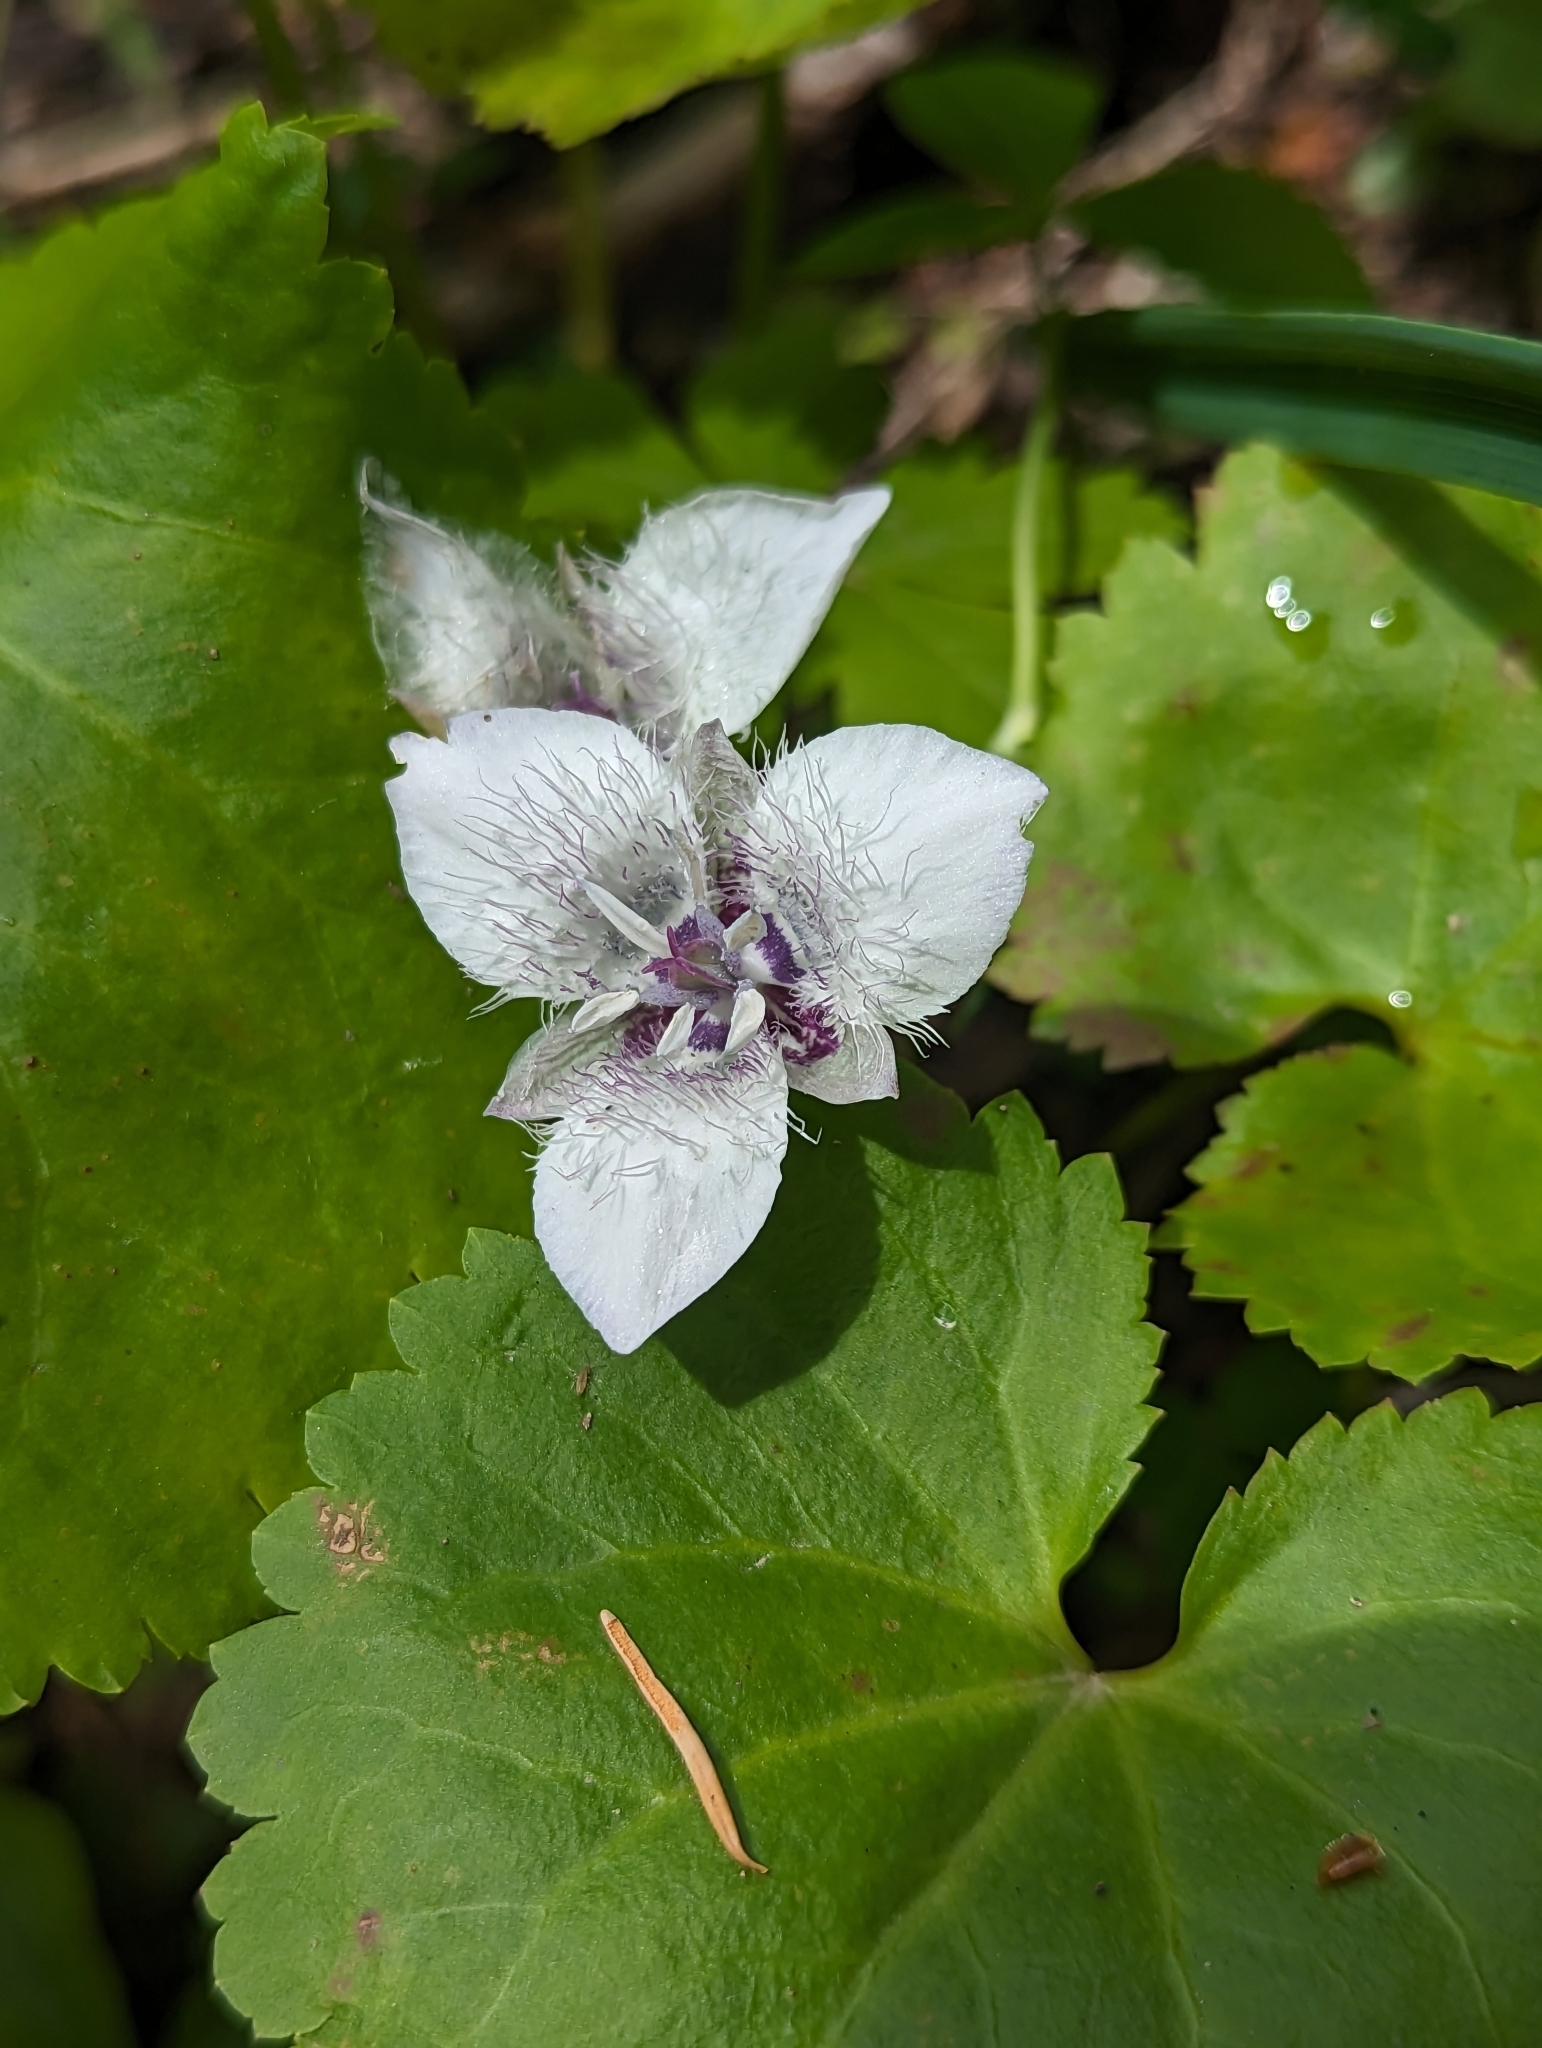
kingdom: Plantae
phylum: Tracheophyta
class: Liliopsida
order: Liliales
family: Liliaceae
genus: Calochortus
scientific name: Calochortus elegans
